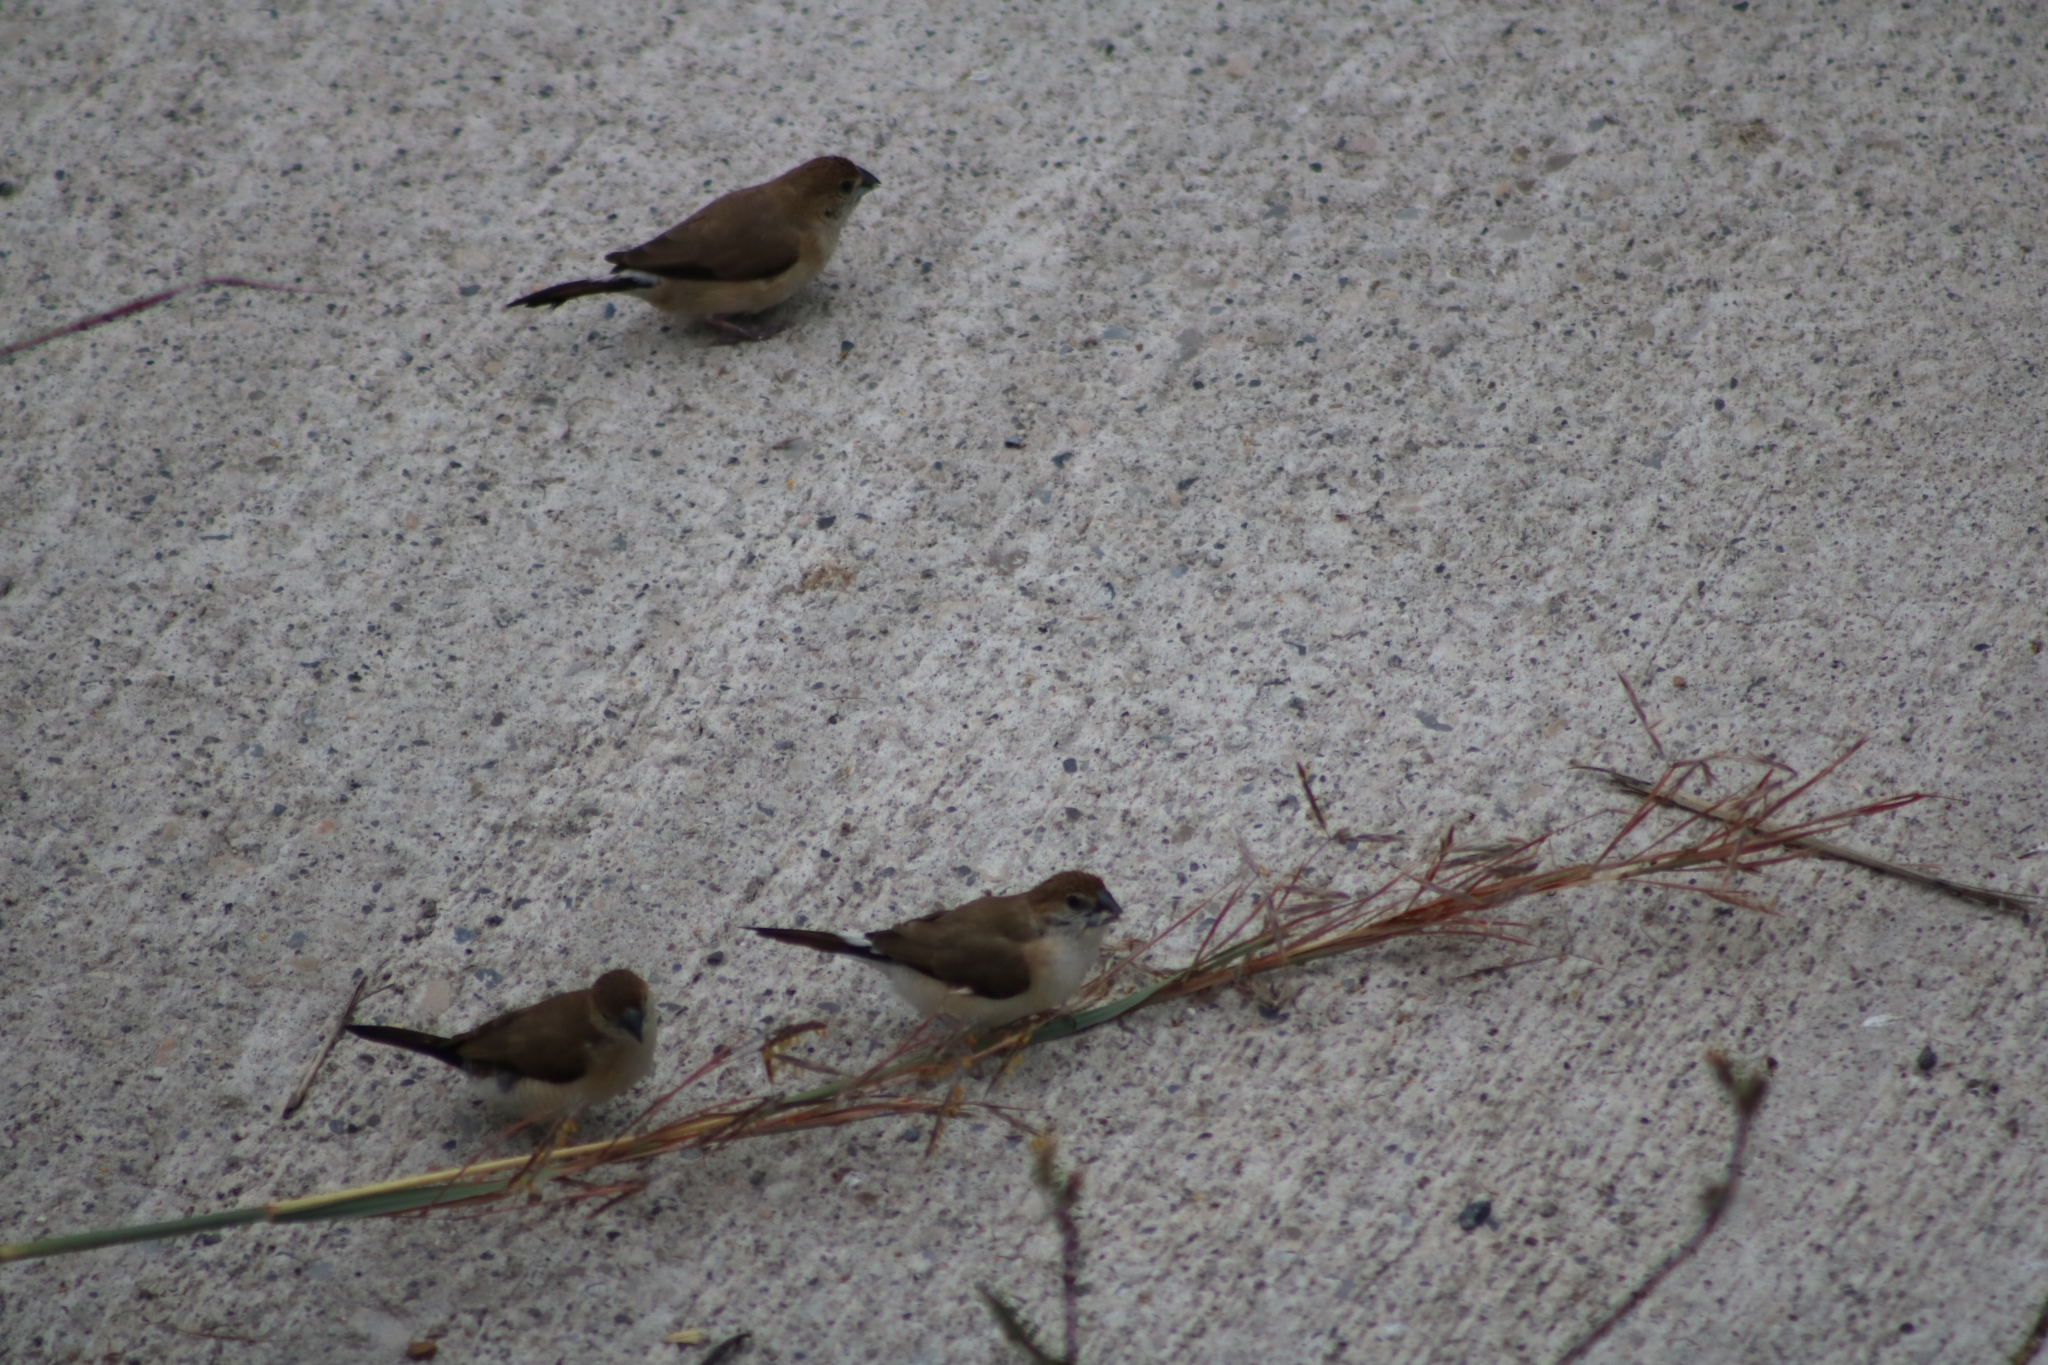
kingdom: Animalia
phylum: Chordata
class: Aves
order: Passeriformes
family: Estrildidae
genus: Euodice
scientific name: Euodice malabarica
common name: Indian silverbill
